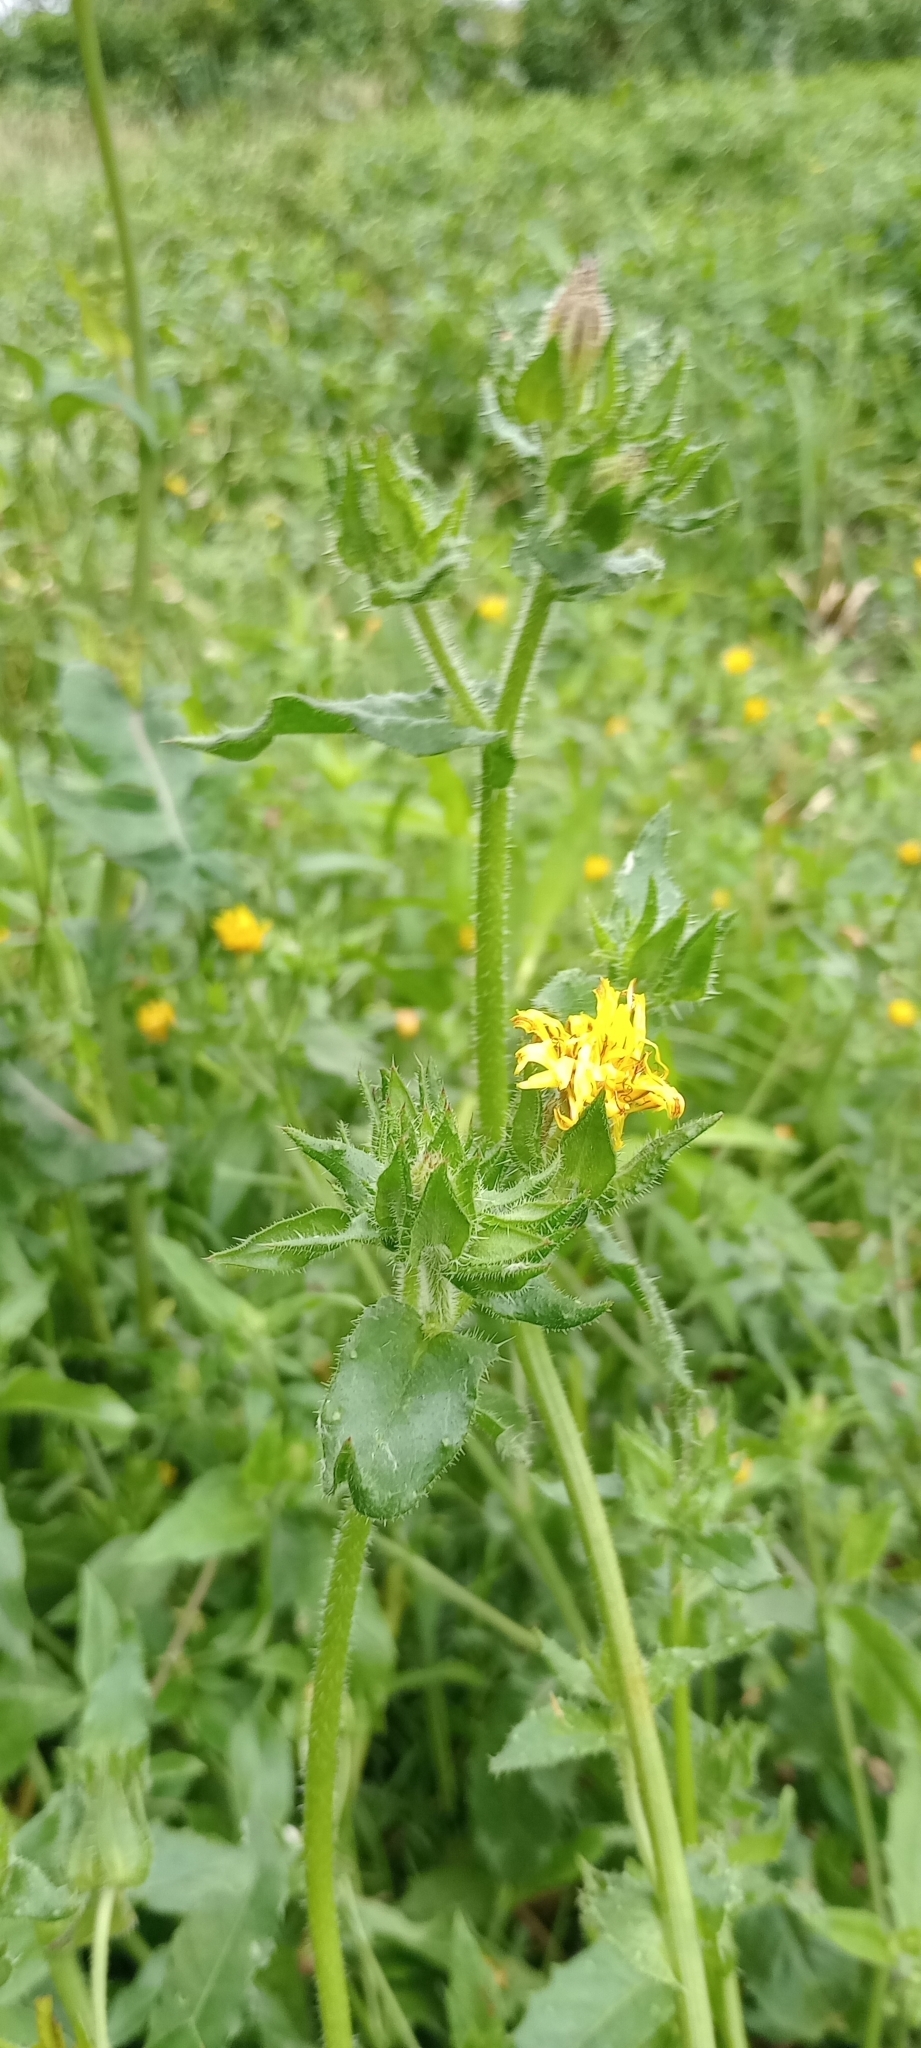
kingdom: Plantae
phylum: Tracheophyta
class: Magnoliopsida
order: Asterales
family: Asteraceae
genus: Helminthotheca
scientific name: Helminthotheca echioides
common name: Ox-tongue
